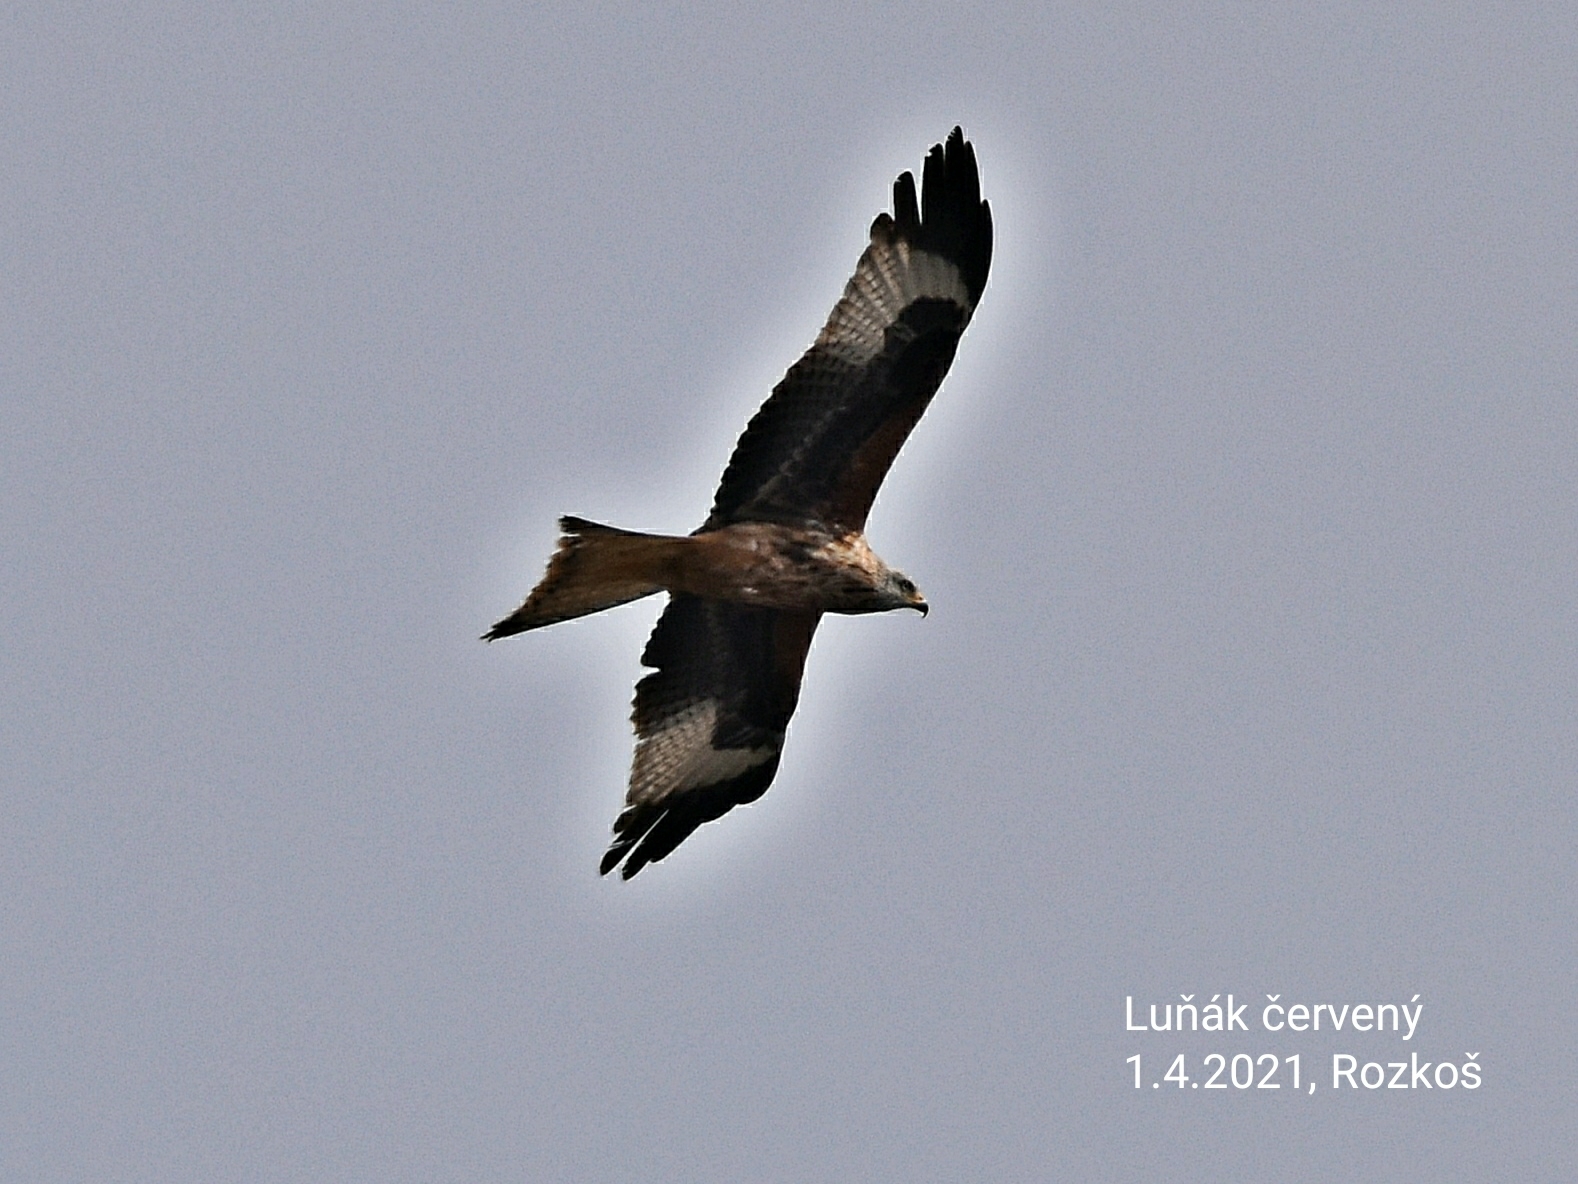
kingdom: Animalia
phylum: Chordata
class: Aves
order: Accipitriformes
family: Accipitridae
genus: Milvus
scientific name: Milvus milvus
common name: Red kite
